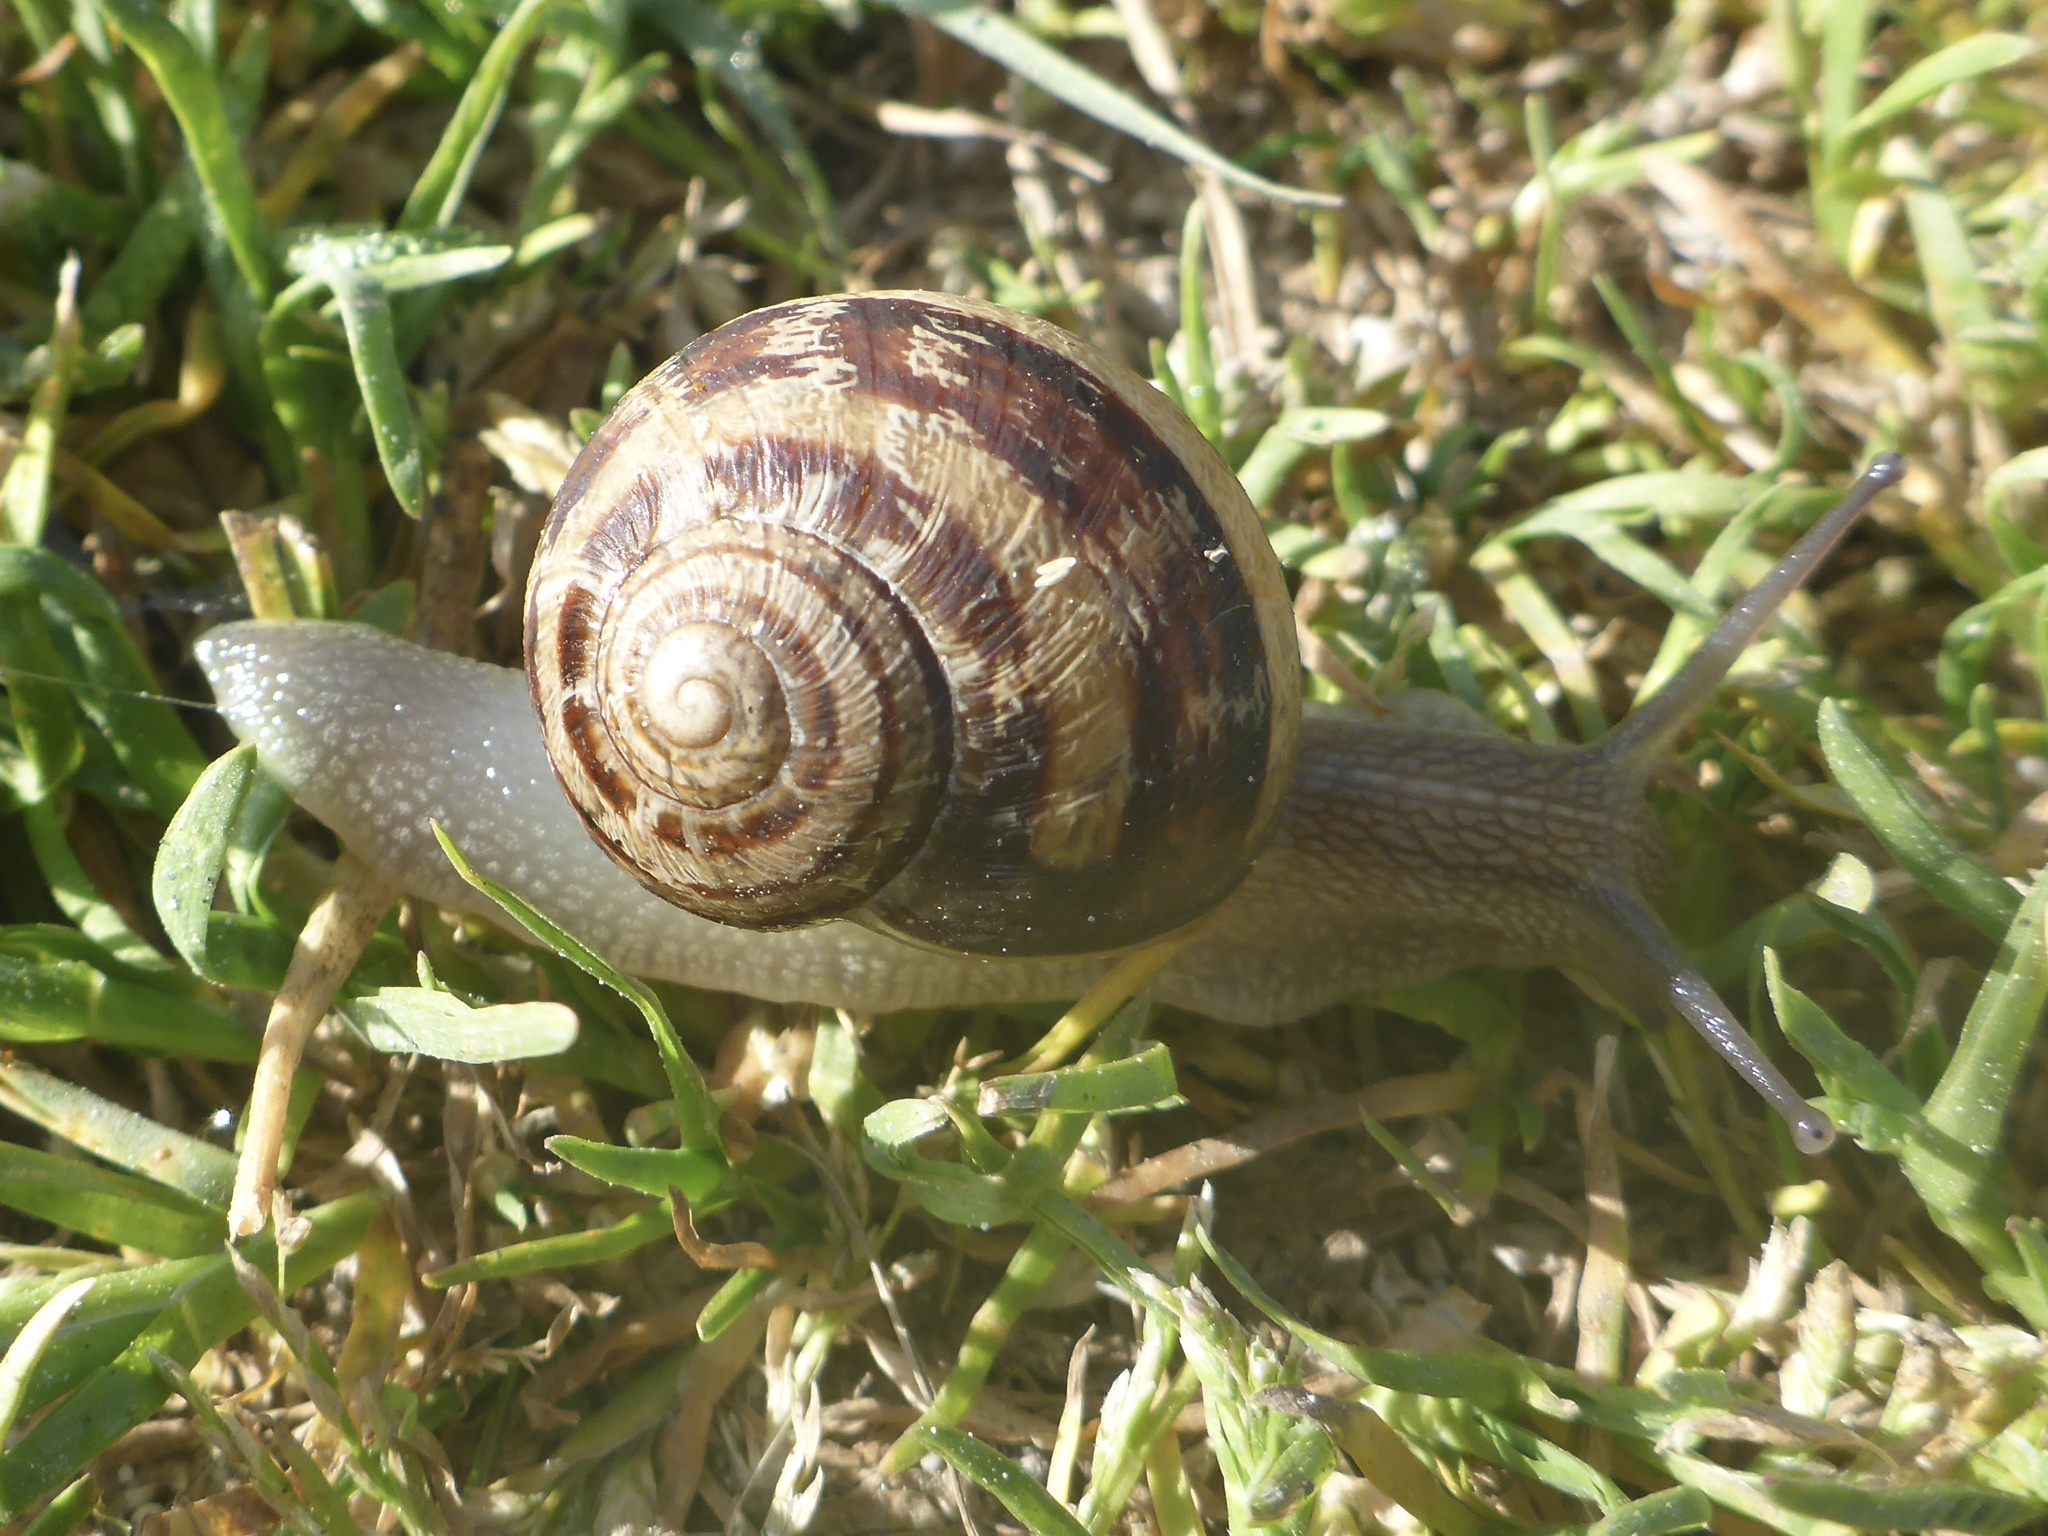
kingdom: Animalia
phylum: Mollusca
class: Gastropoda
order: Stylommatophora
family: Helicidae
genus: Cornu
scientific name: Cornu aspersum
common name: Brown garden snail
